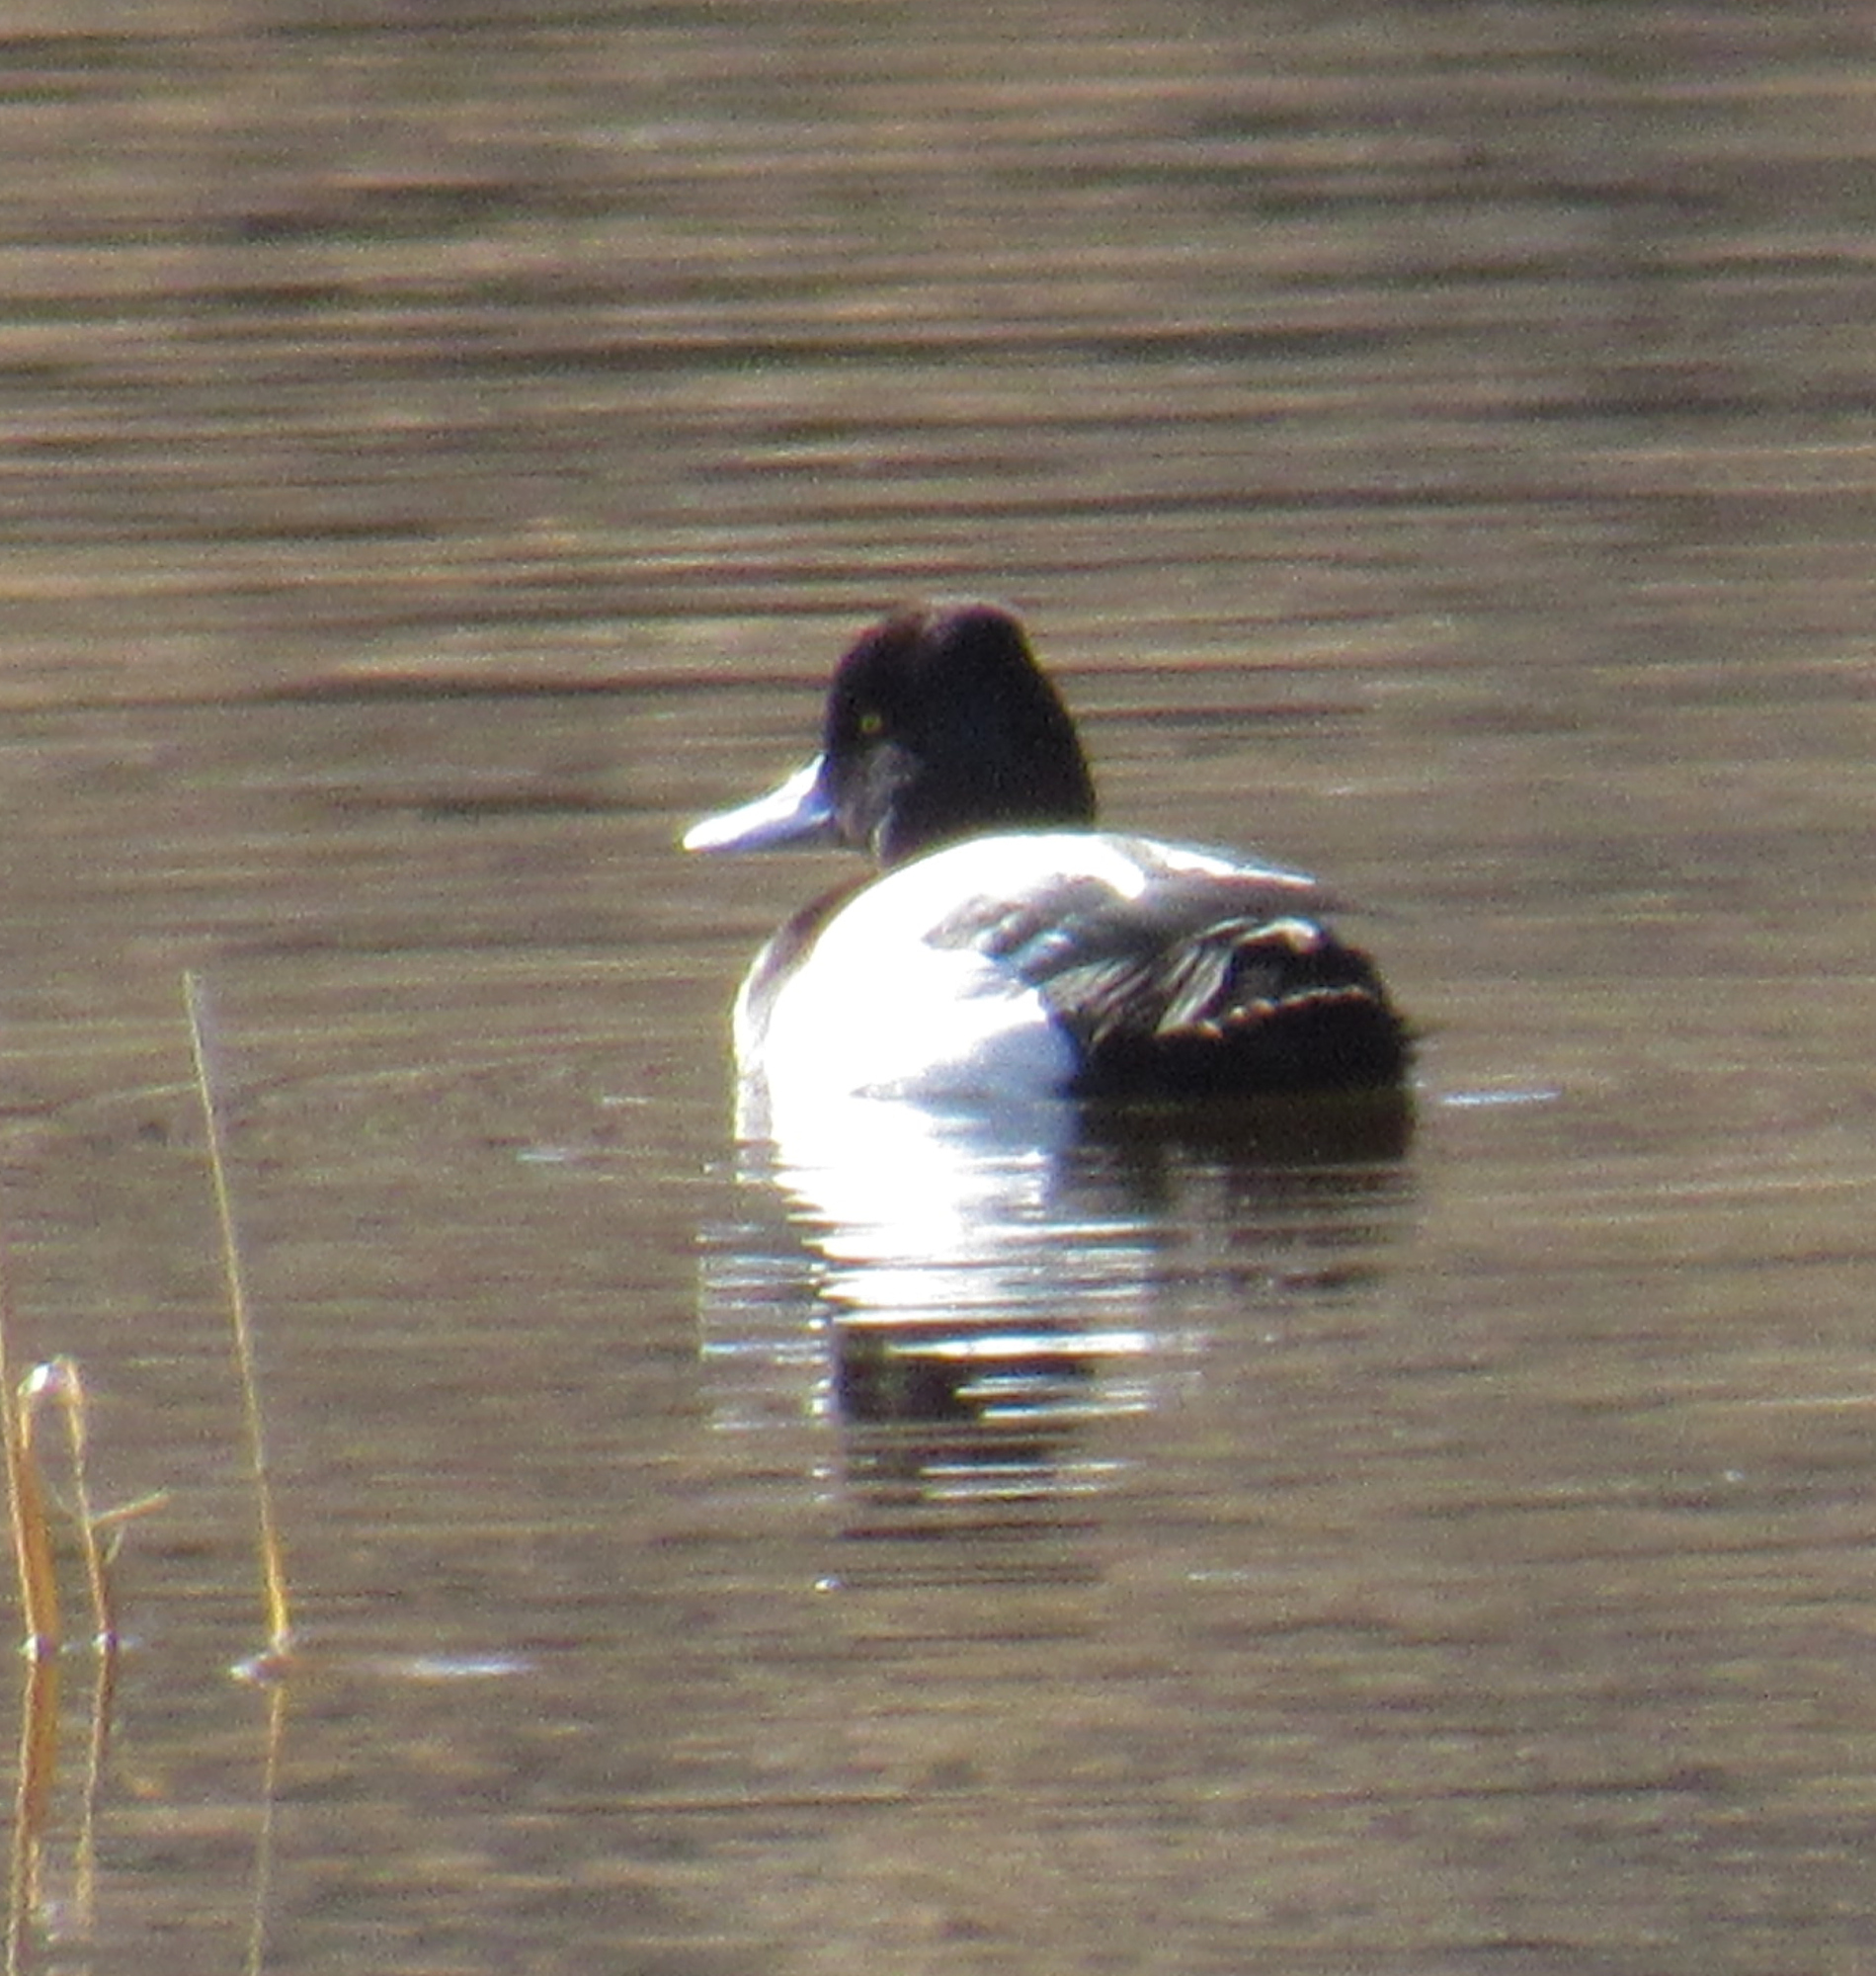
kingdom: Animalia
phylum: Chordata
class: Aves
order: Anseriformes
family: Anatidae
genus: Aythya
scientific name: Aythya affinis
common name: Lesser scaup
